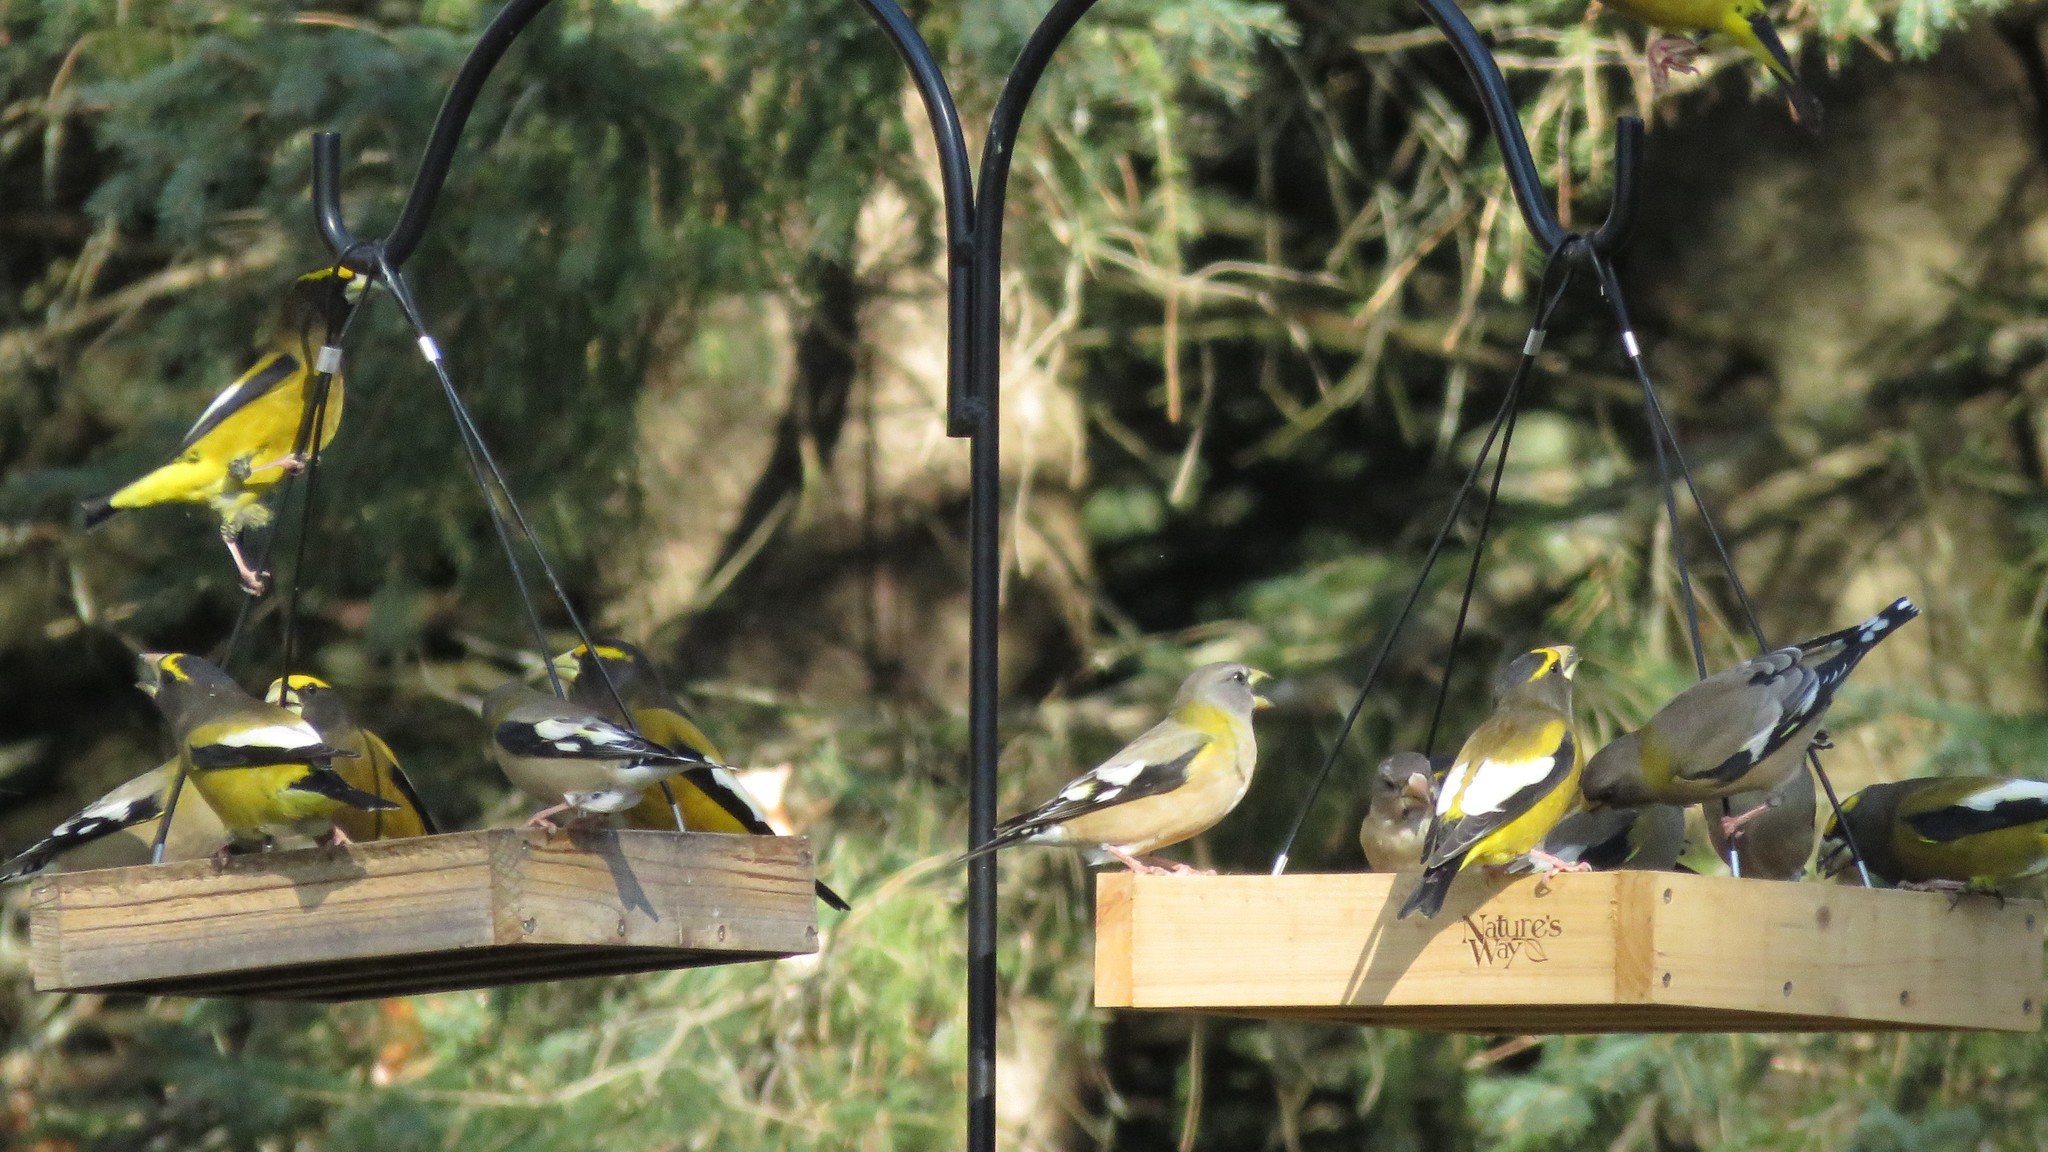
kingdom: Animalia
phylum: Chordata
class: Aves
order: Passeriformes
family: Fringillidae
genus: Hesperiphona
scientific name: Hesperiphona vespertina
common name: Evening grosbeak
